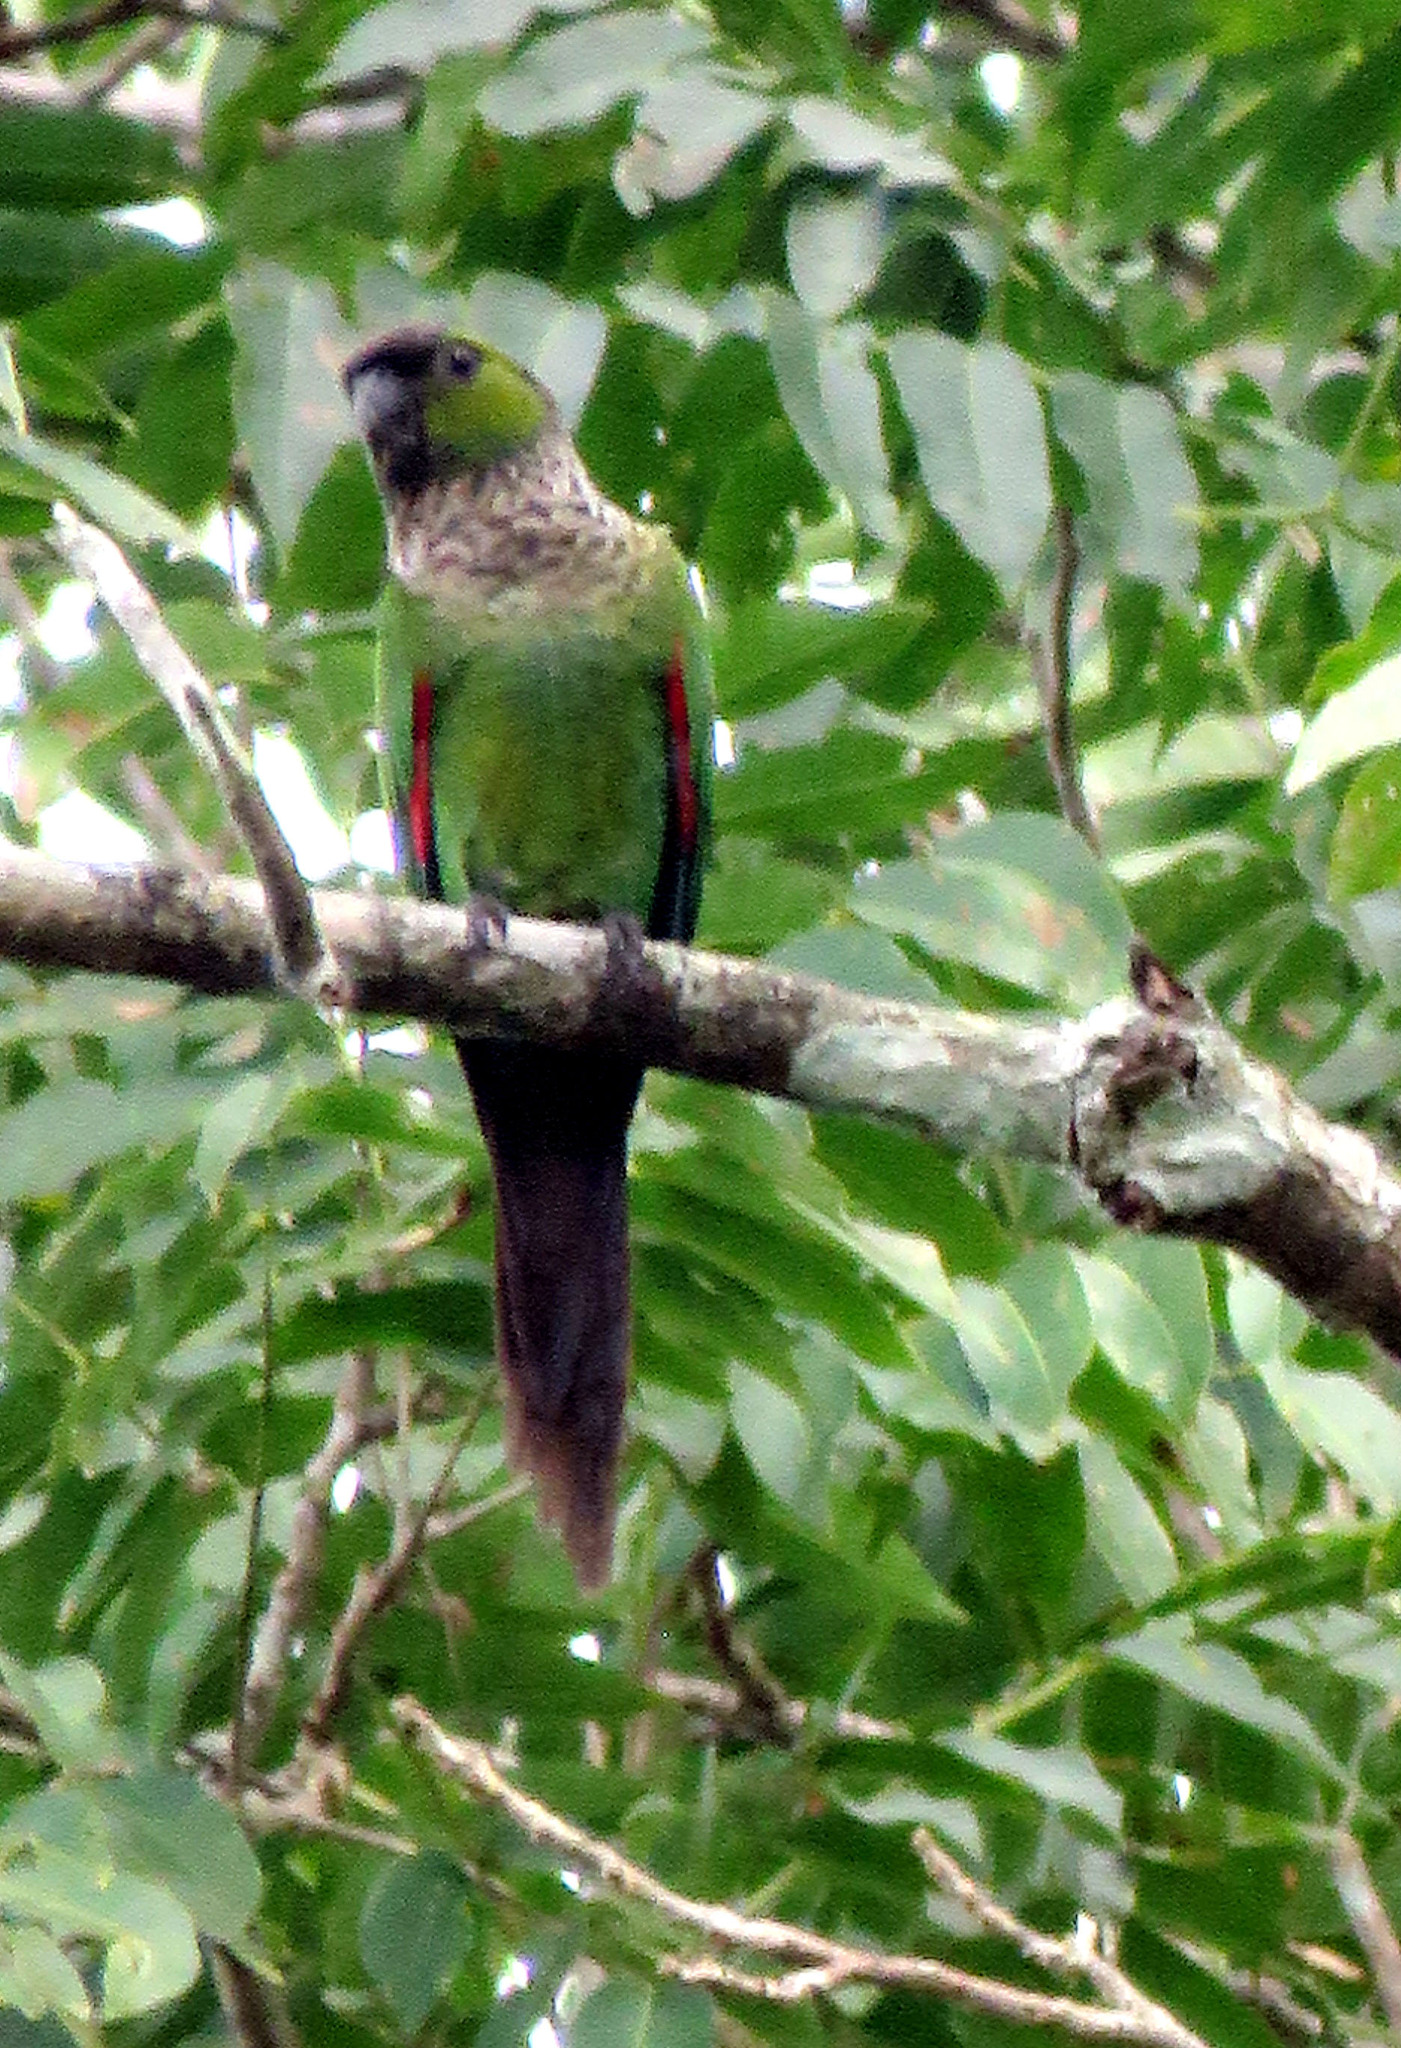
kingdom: Animalia
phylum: Chordata
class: Aves
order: Psittaciformes
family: Psittacidae
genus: Pyrrhura
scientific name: Pyrrhura rupicola
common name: Black-capped parakeet
